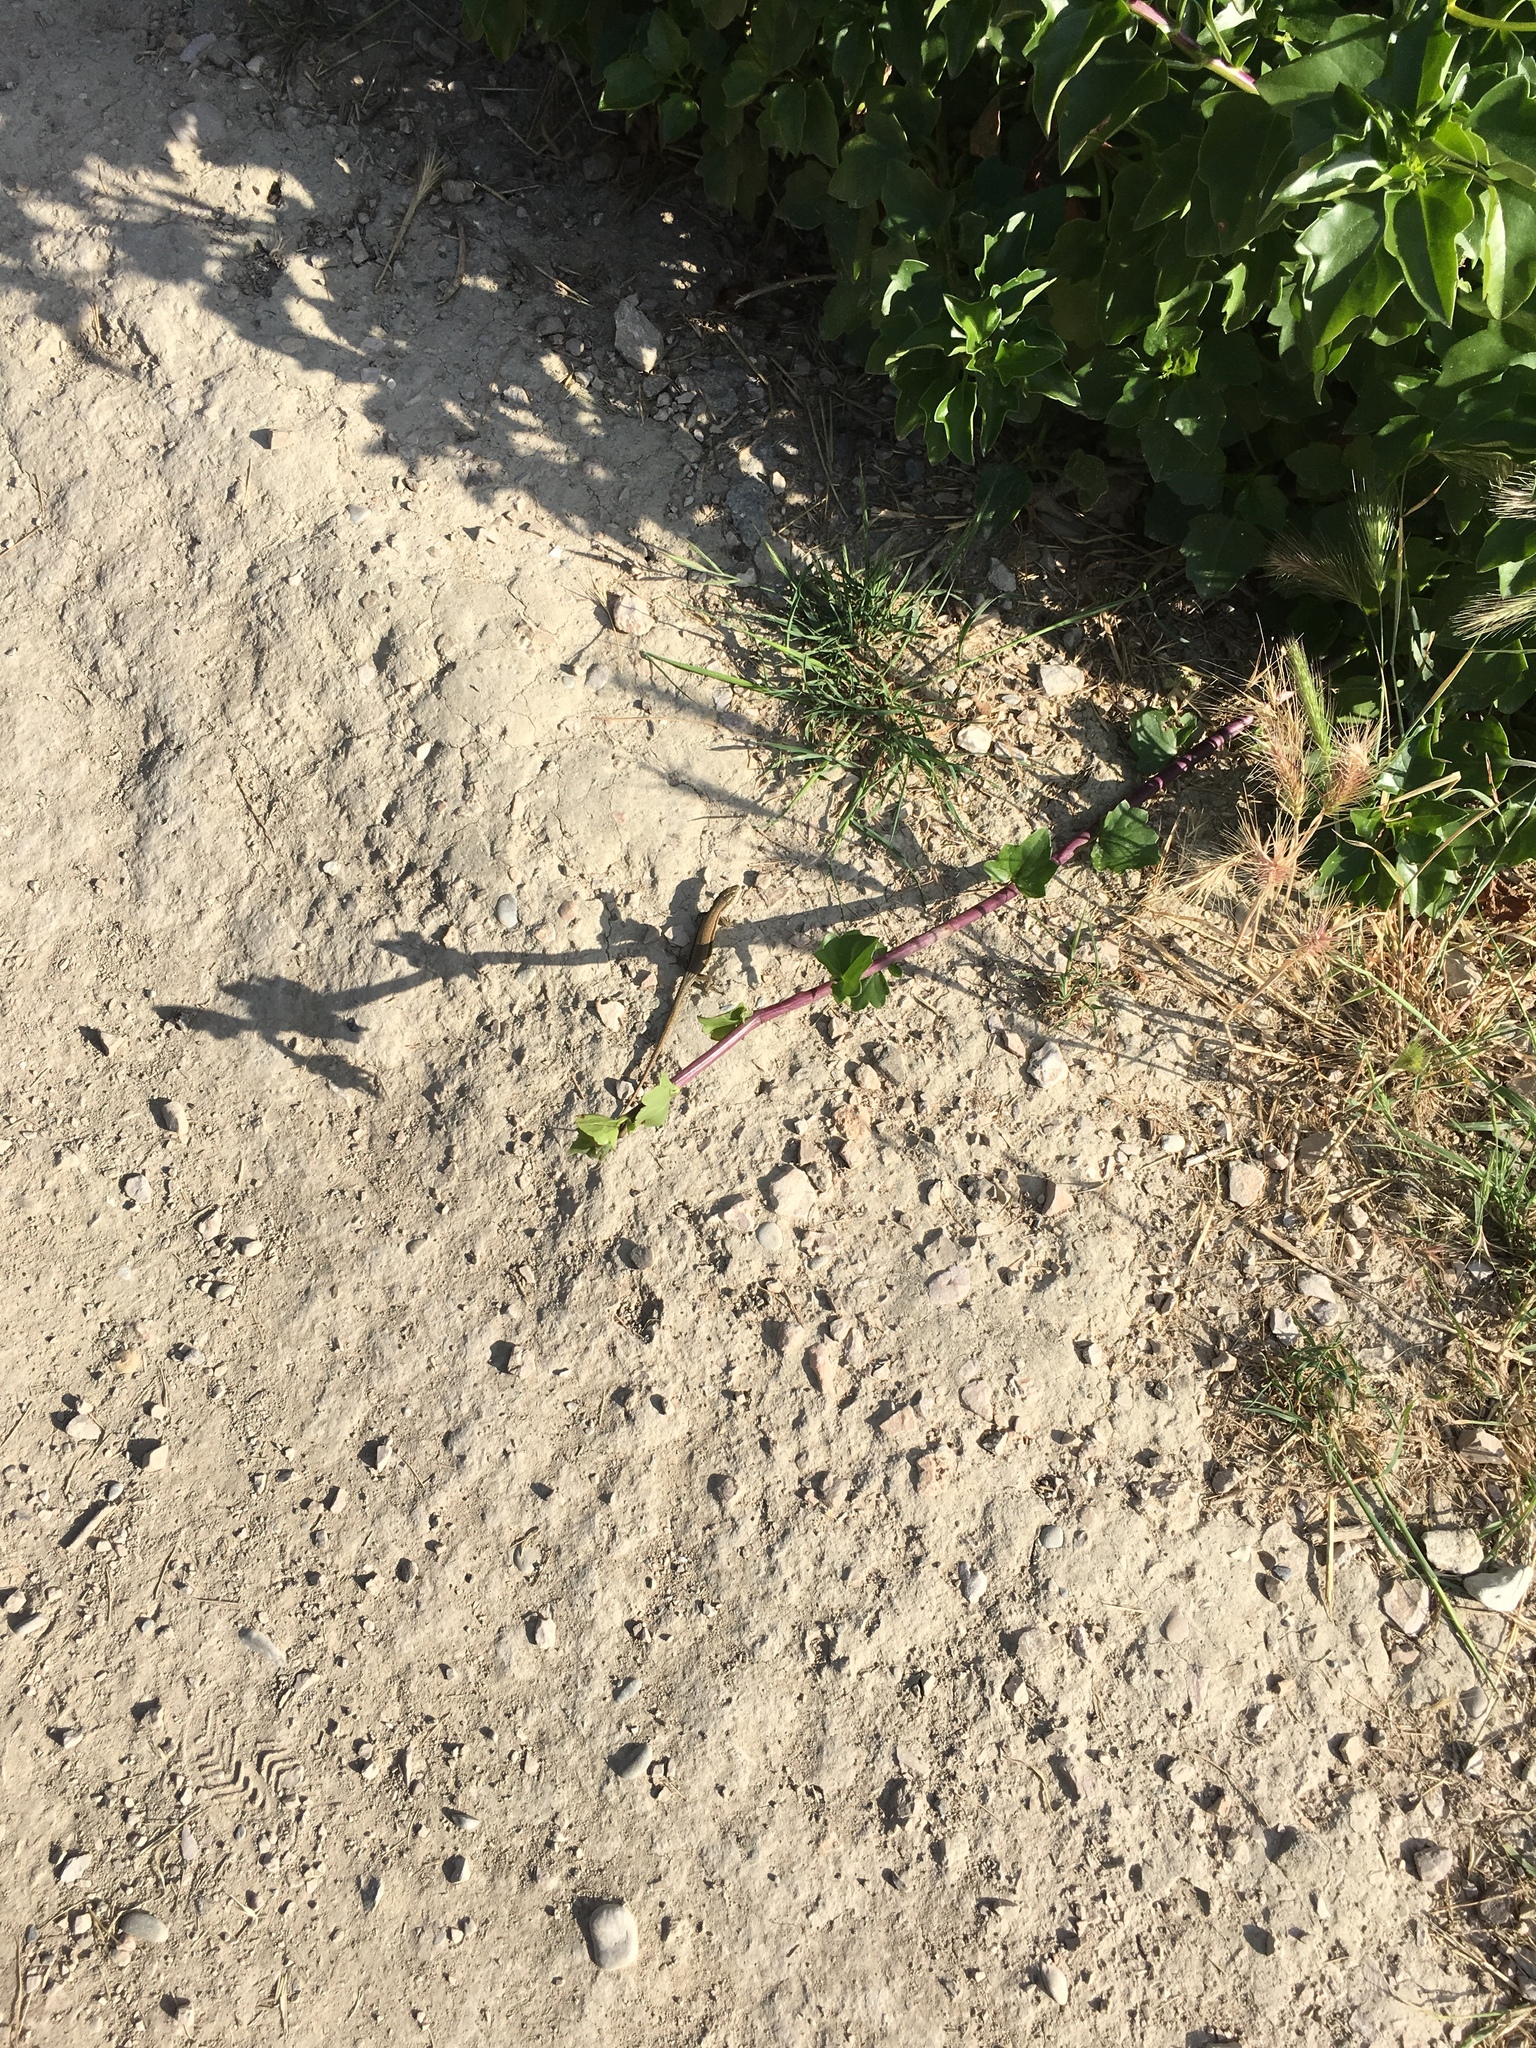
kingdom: Animalia
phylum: Chordata
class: Squamata
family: Lacertidae
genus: Podarcis
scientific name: Podarcis muralis
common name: Common wall lizard
